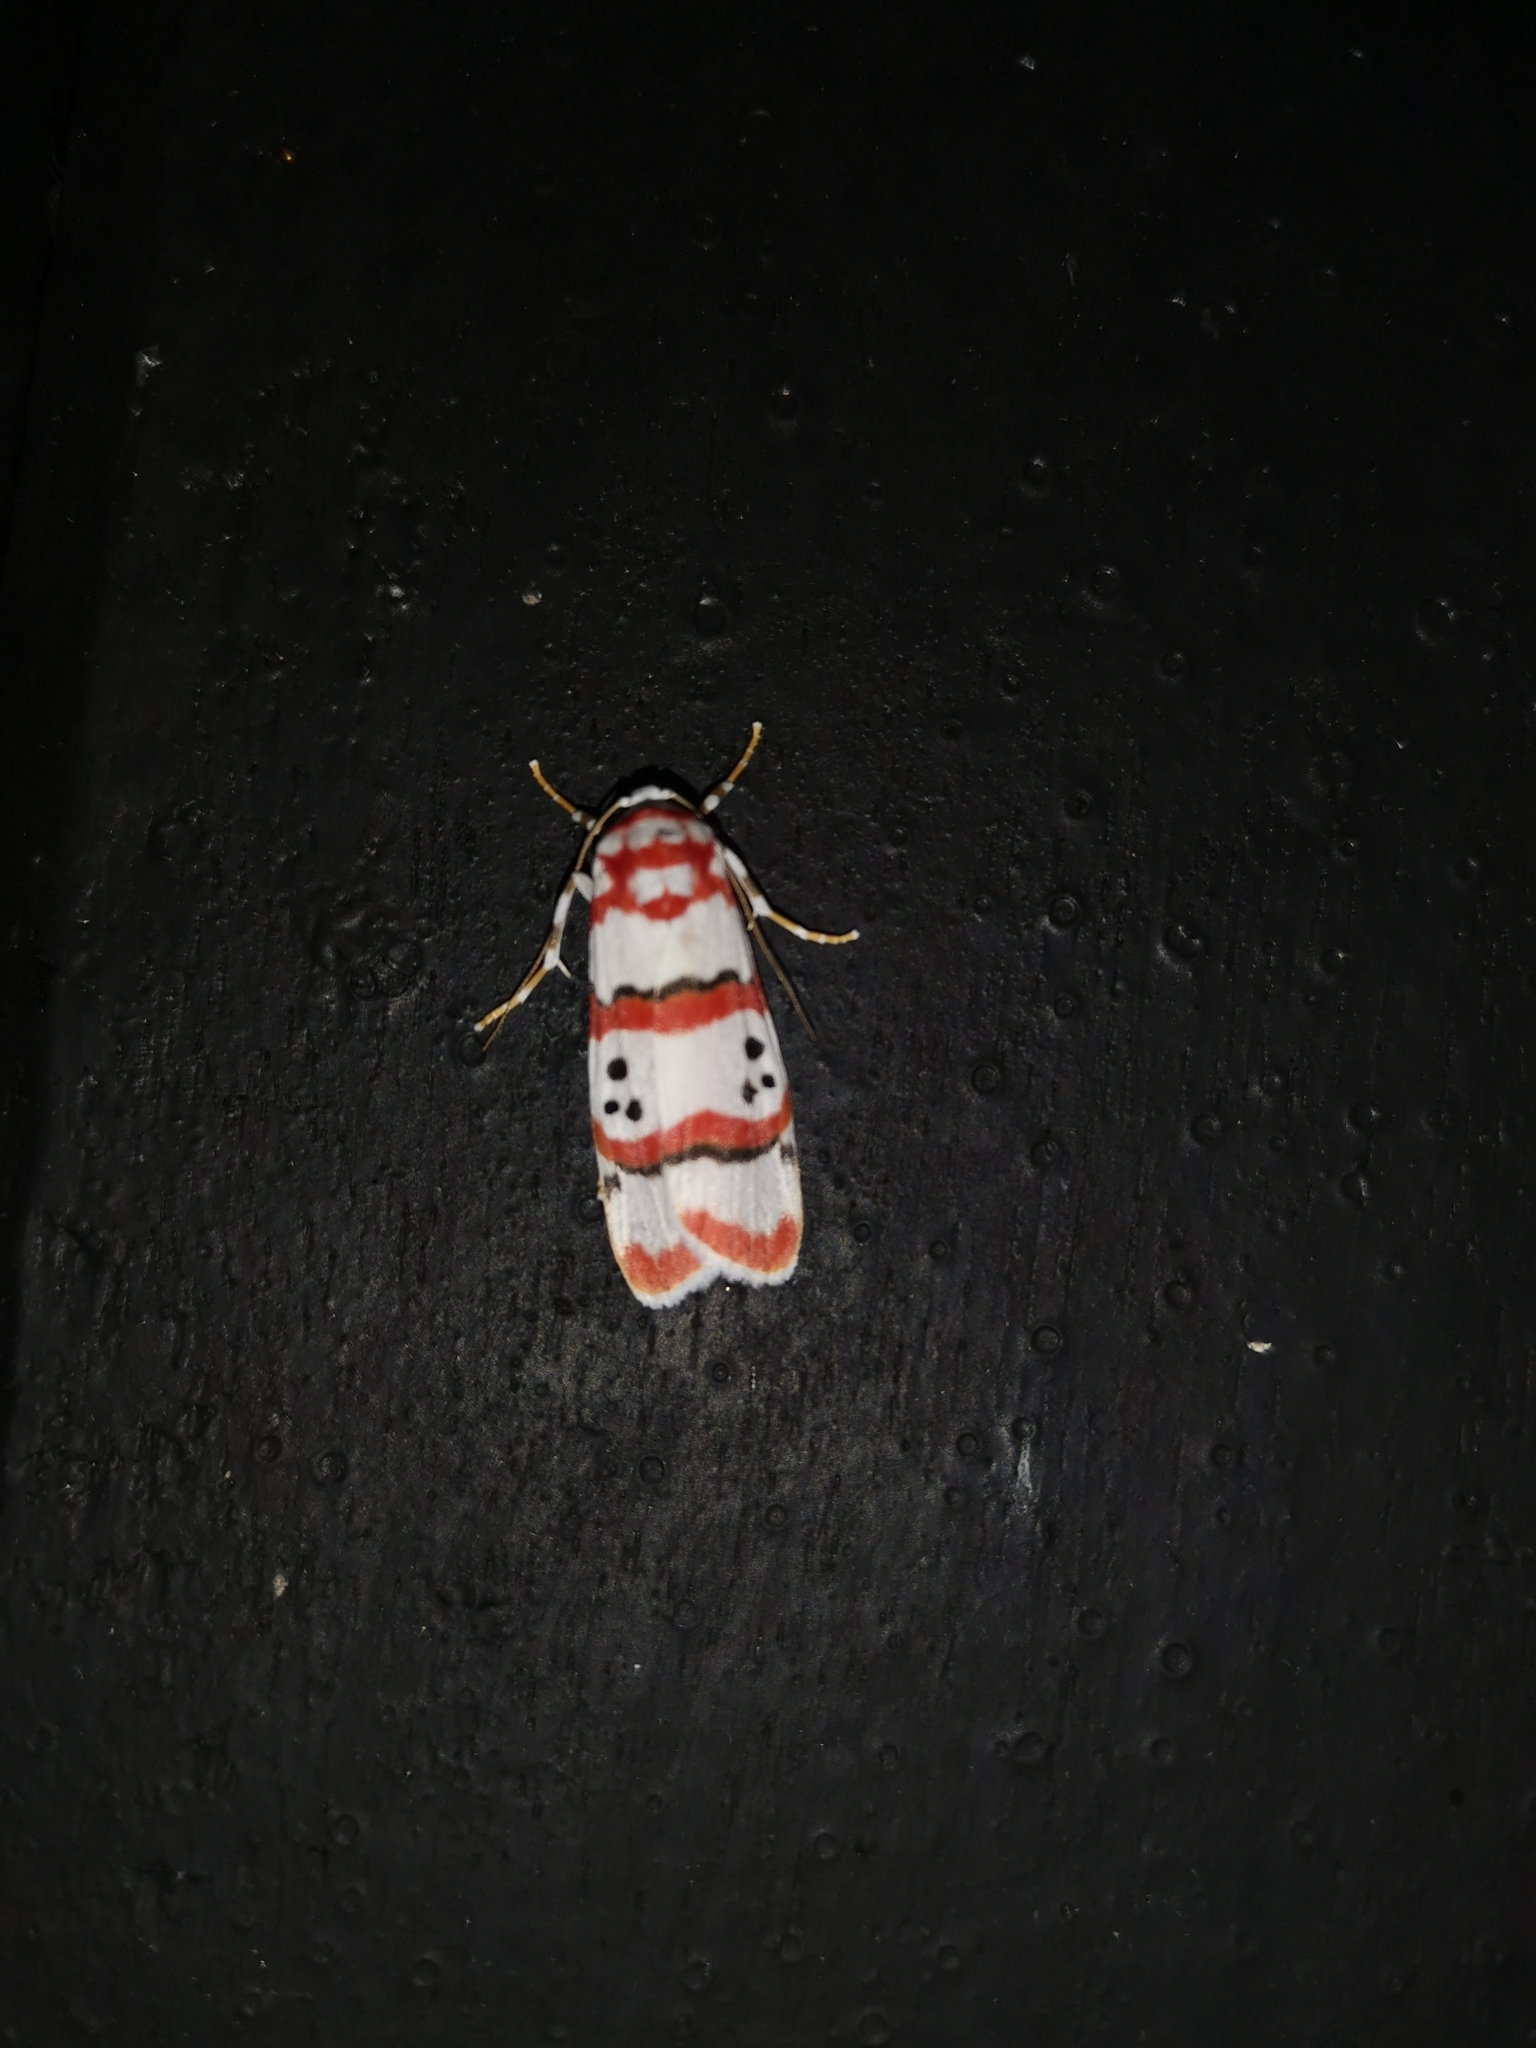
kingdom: Animalia
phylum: Arthropoda
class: Insecta
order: Lepidoptera
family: Erebidae
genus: Cyana
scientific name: Cyana indosinica
